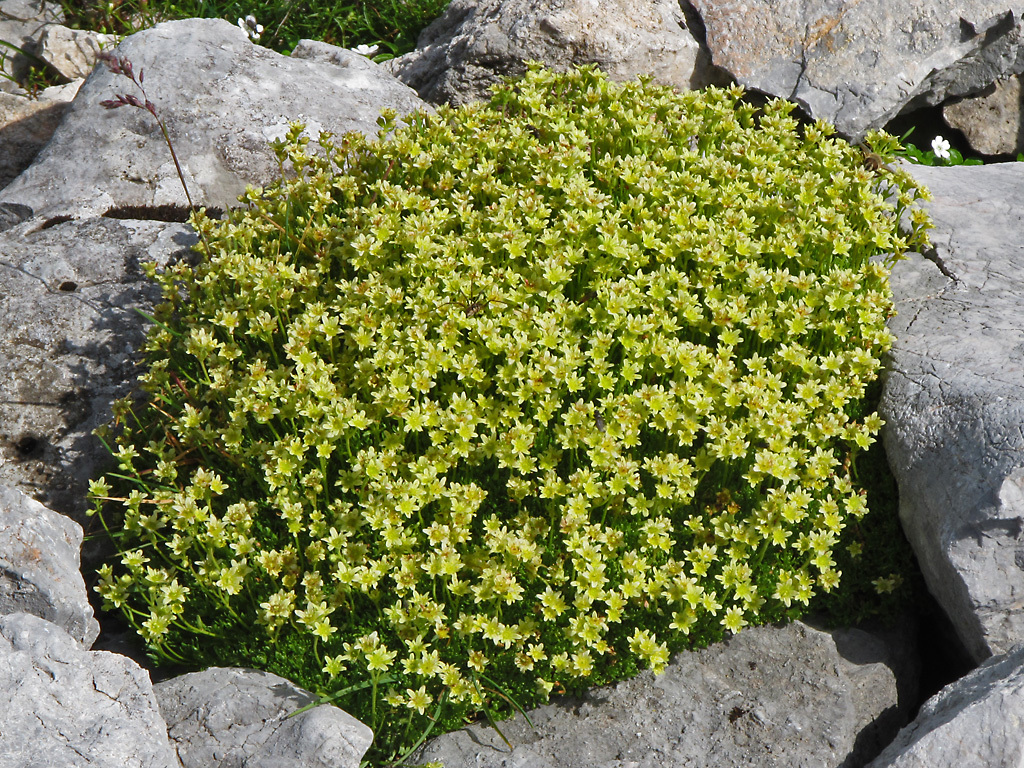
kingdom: Plantae
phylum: Tracheophyta
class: Magnoliopsida
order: Saxifragales
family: Saxifragaceae
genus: Saxifraga
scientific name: Saxifraga moschata
